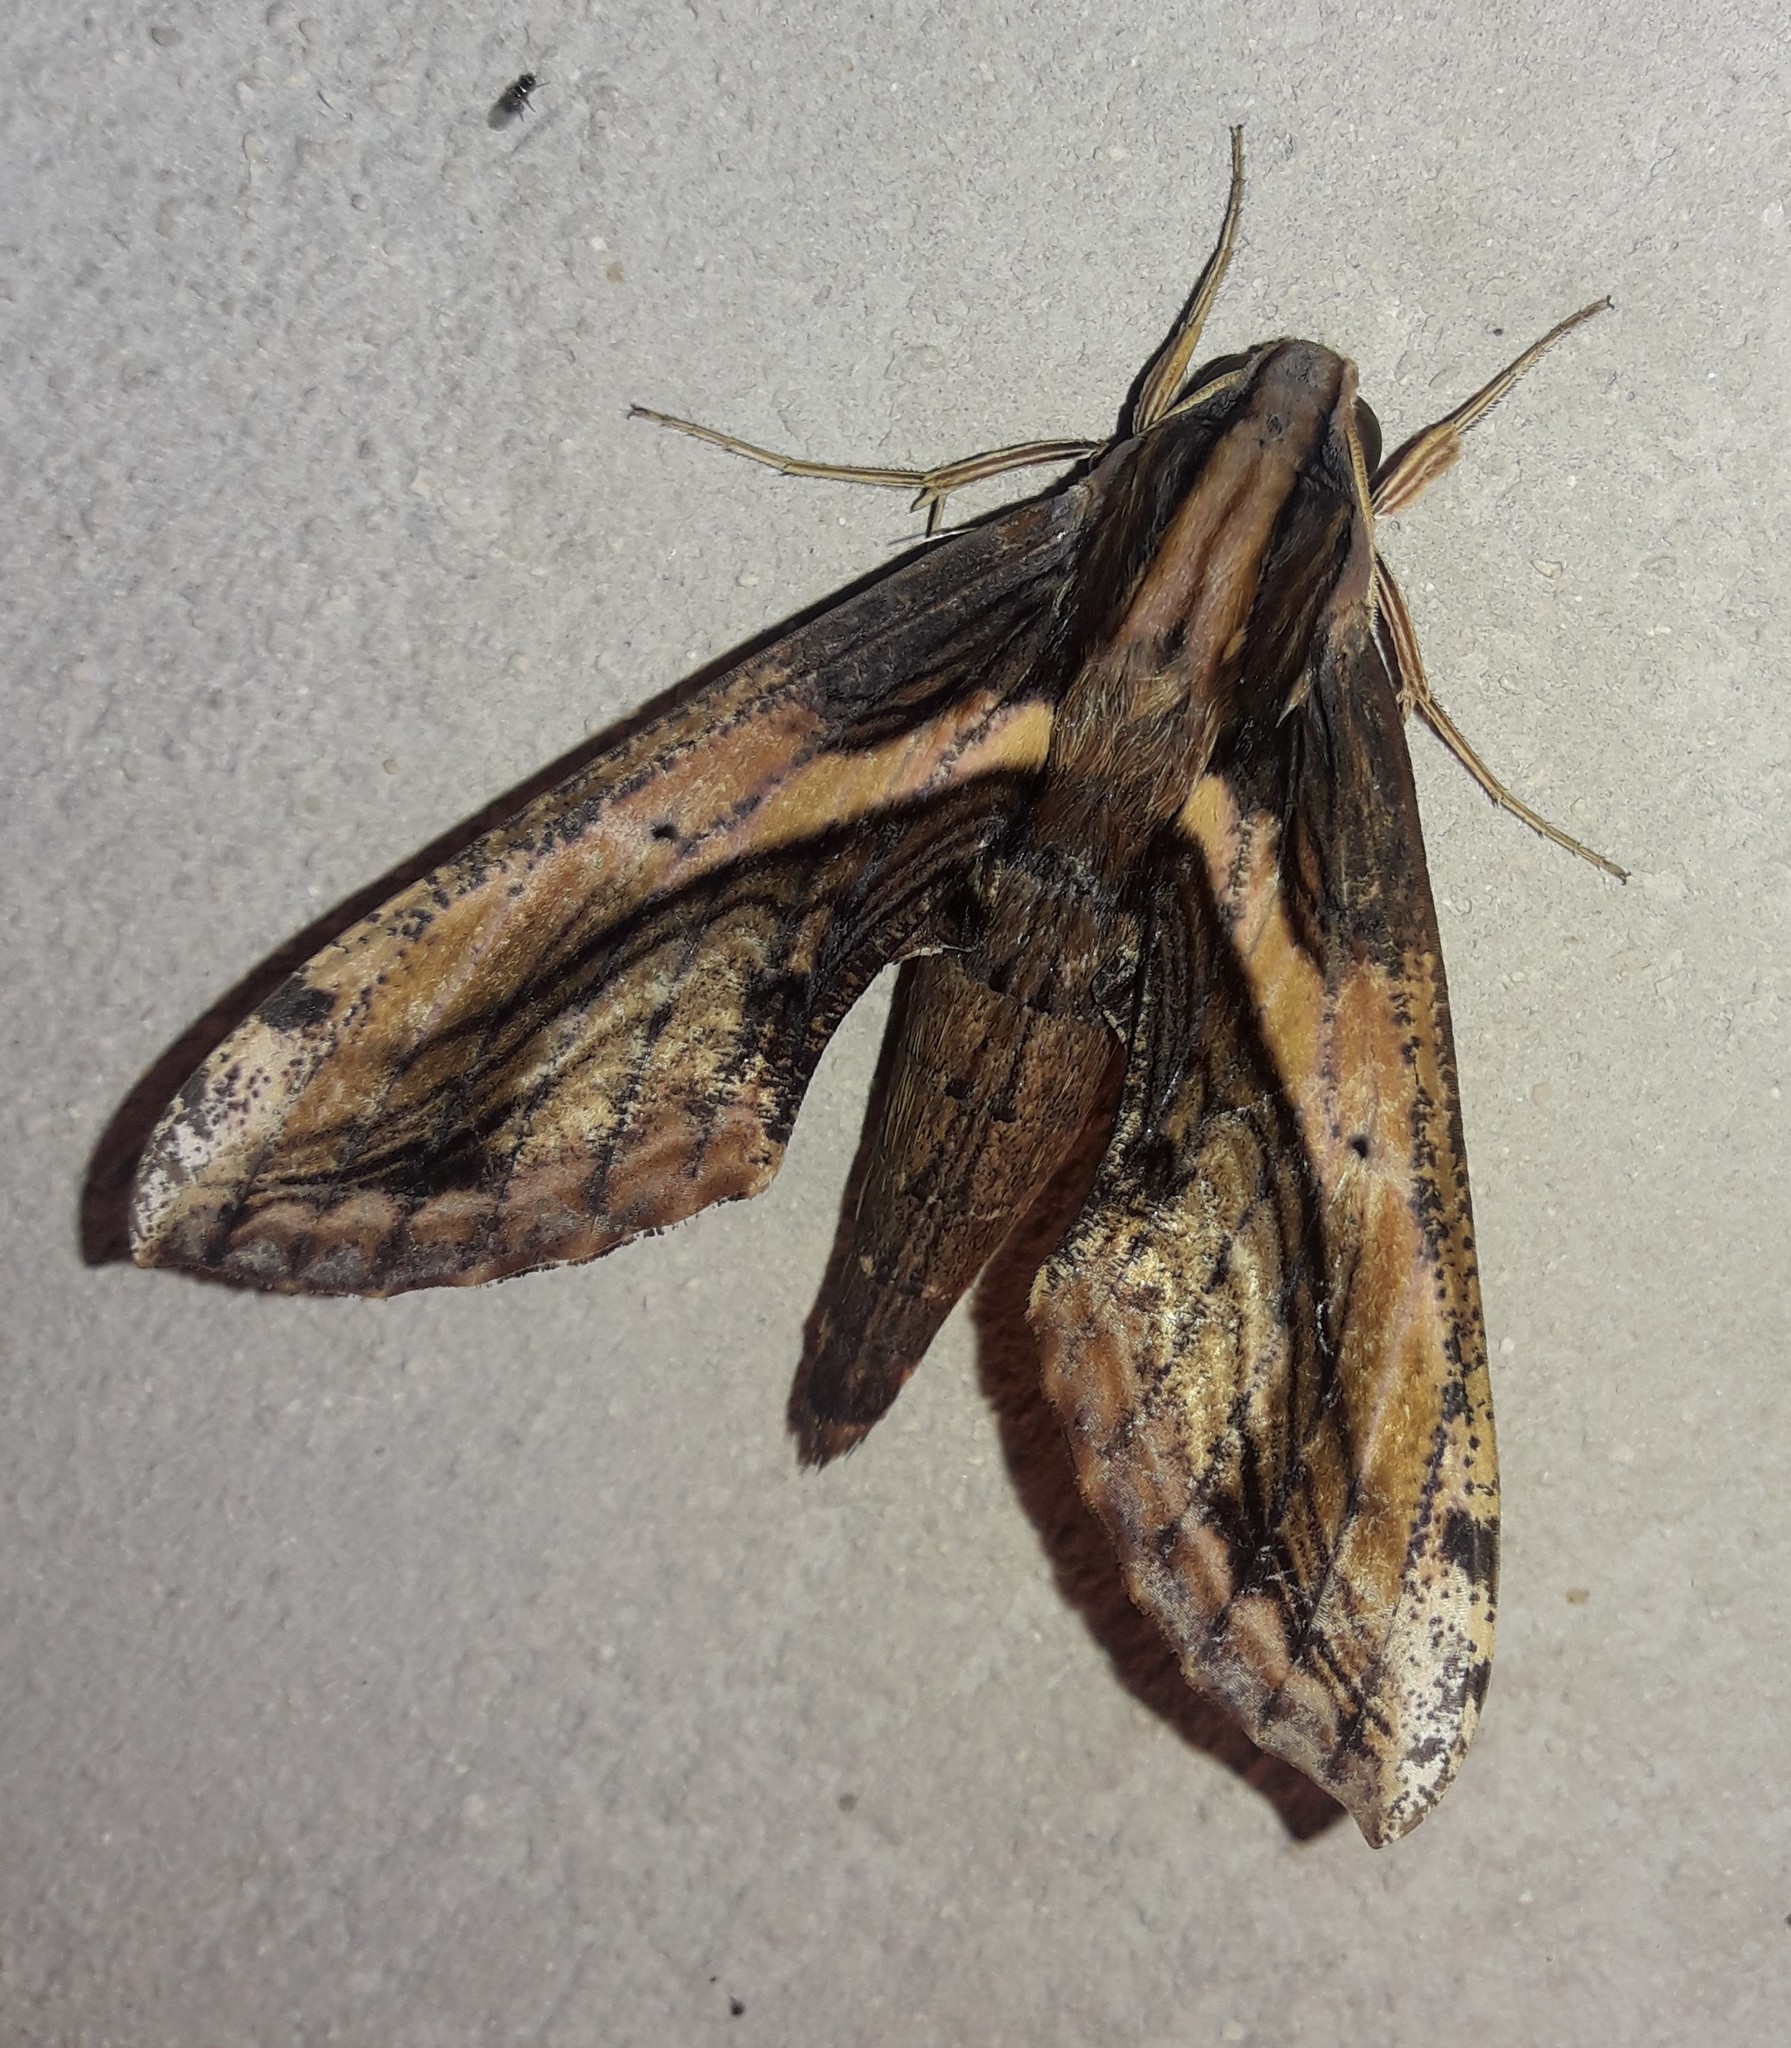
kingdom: Animalia
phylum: Arthropoda
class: Insecta
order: Lepidoptera
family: Sphingidae
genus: Xylophanes
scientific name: Xylophanes ceratomioides
